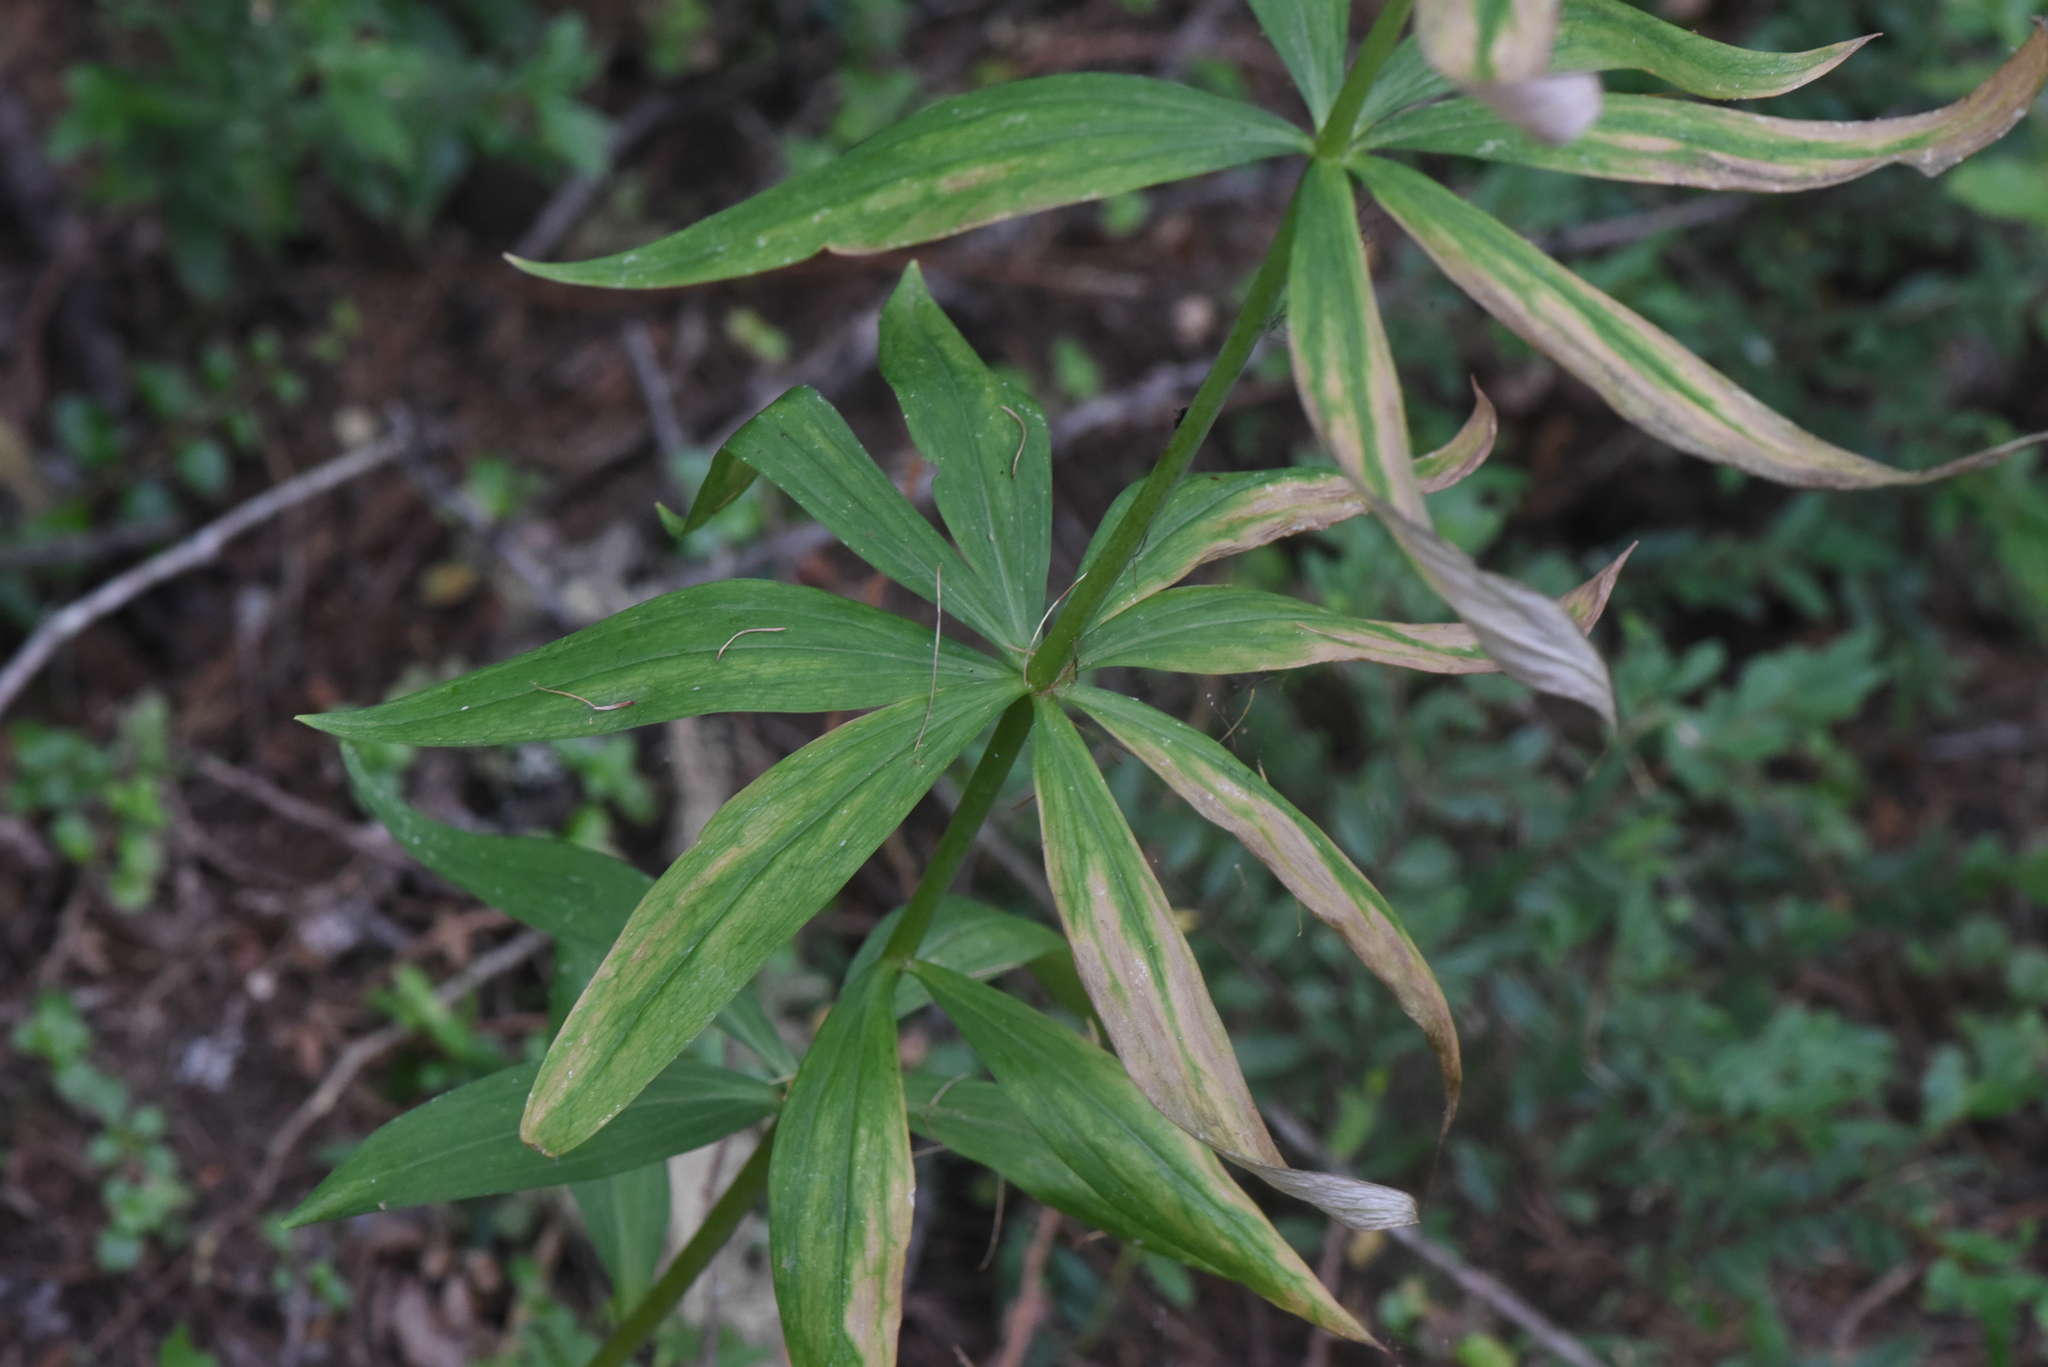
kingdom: Plantae
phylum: Tracheophyta
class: Liliopsida
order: Liliales
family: Liliaceae
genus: Lilium
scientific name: Lilium columbianum
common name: Columbia lily
